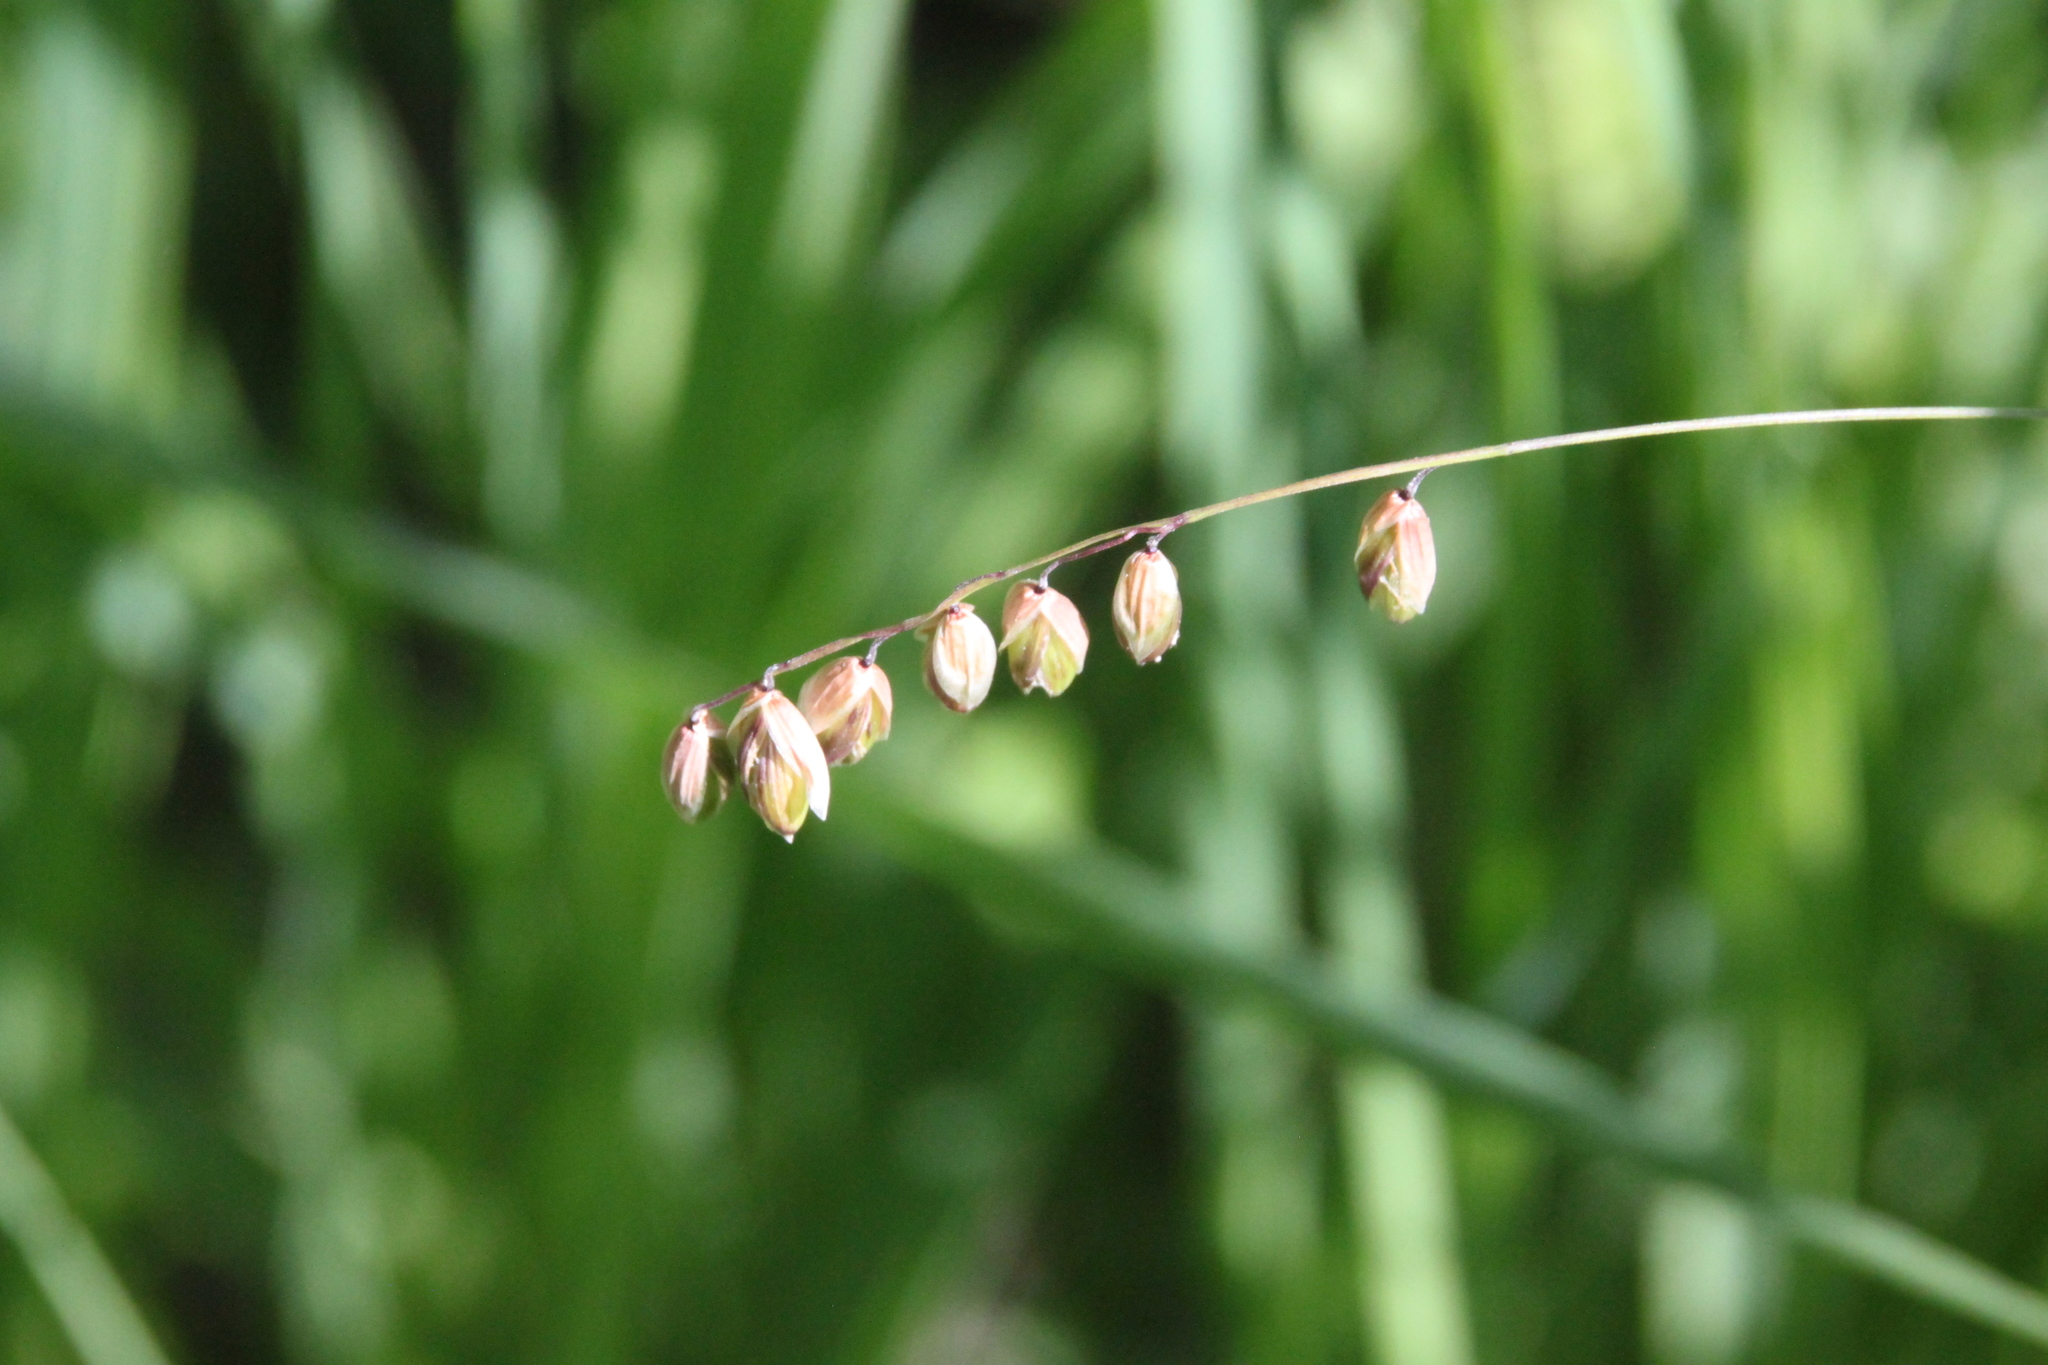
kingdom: Plantae
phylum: Tracheophyta
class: Liliopsida
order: Poales
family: Poaceae
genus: Melica
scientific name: Melica nutans
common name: Mountain melick
